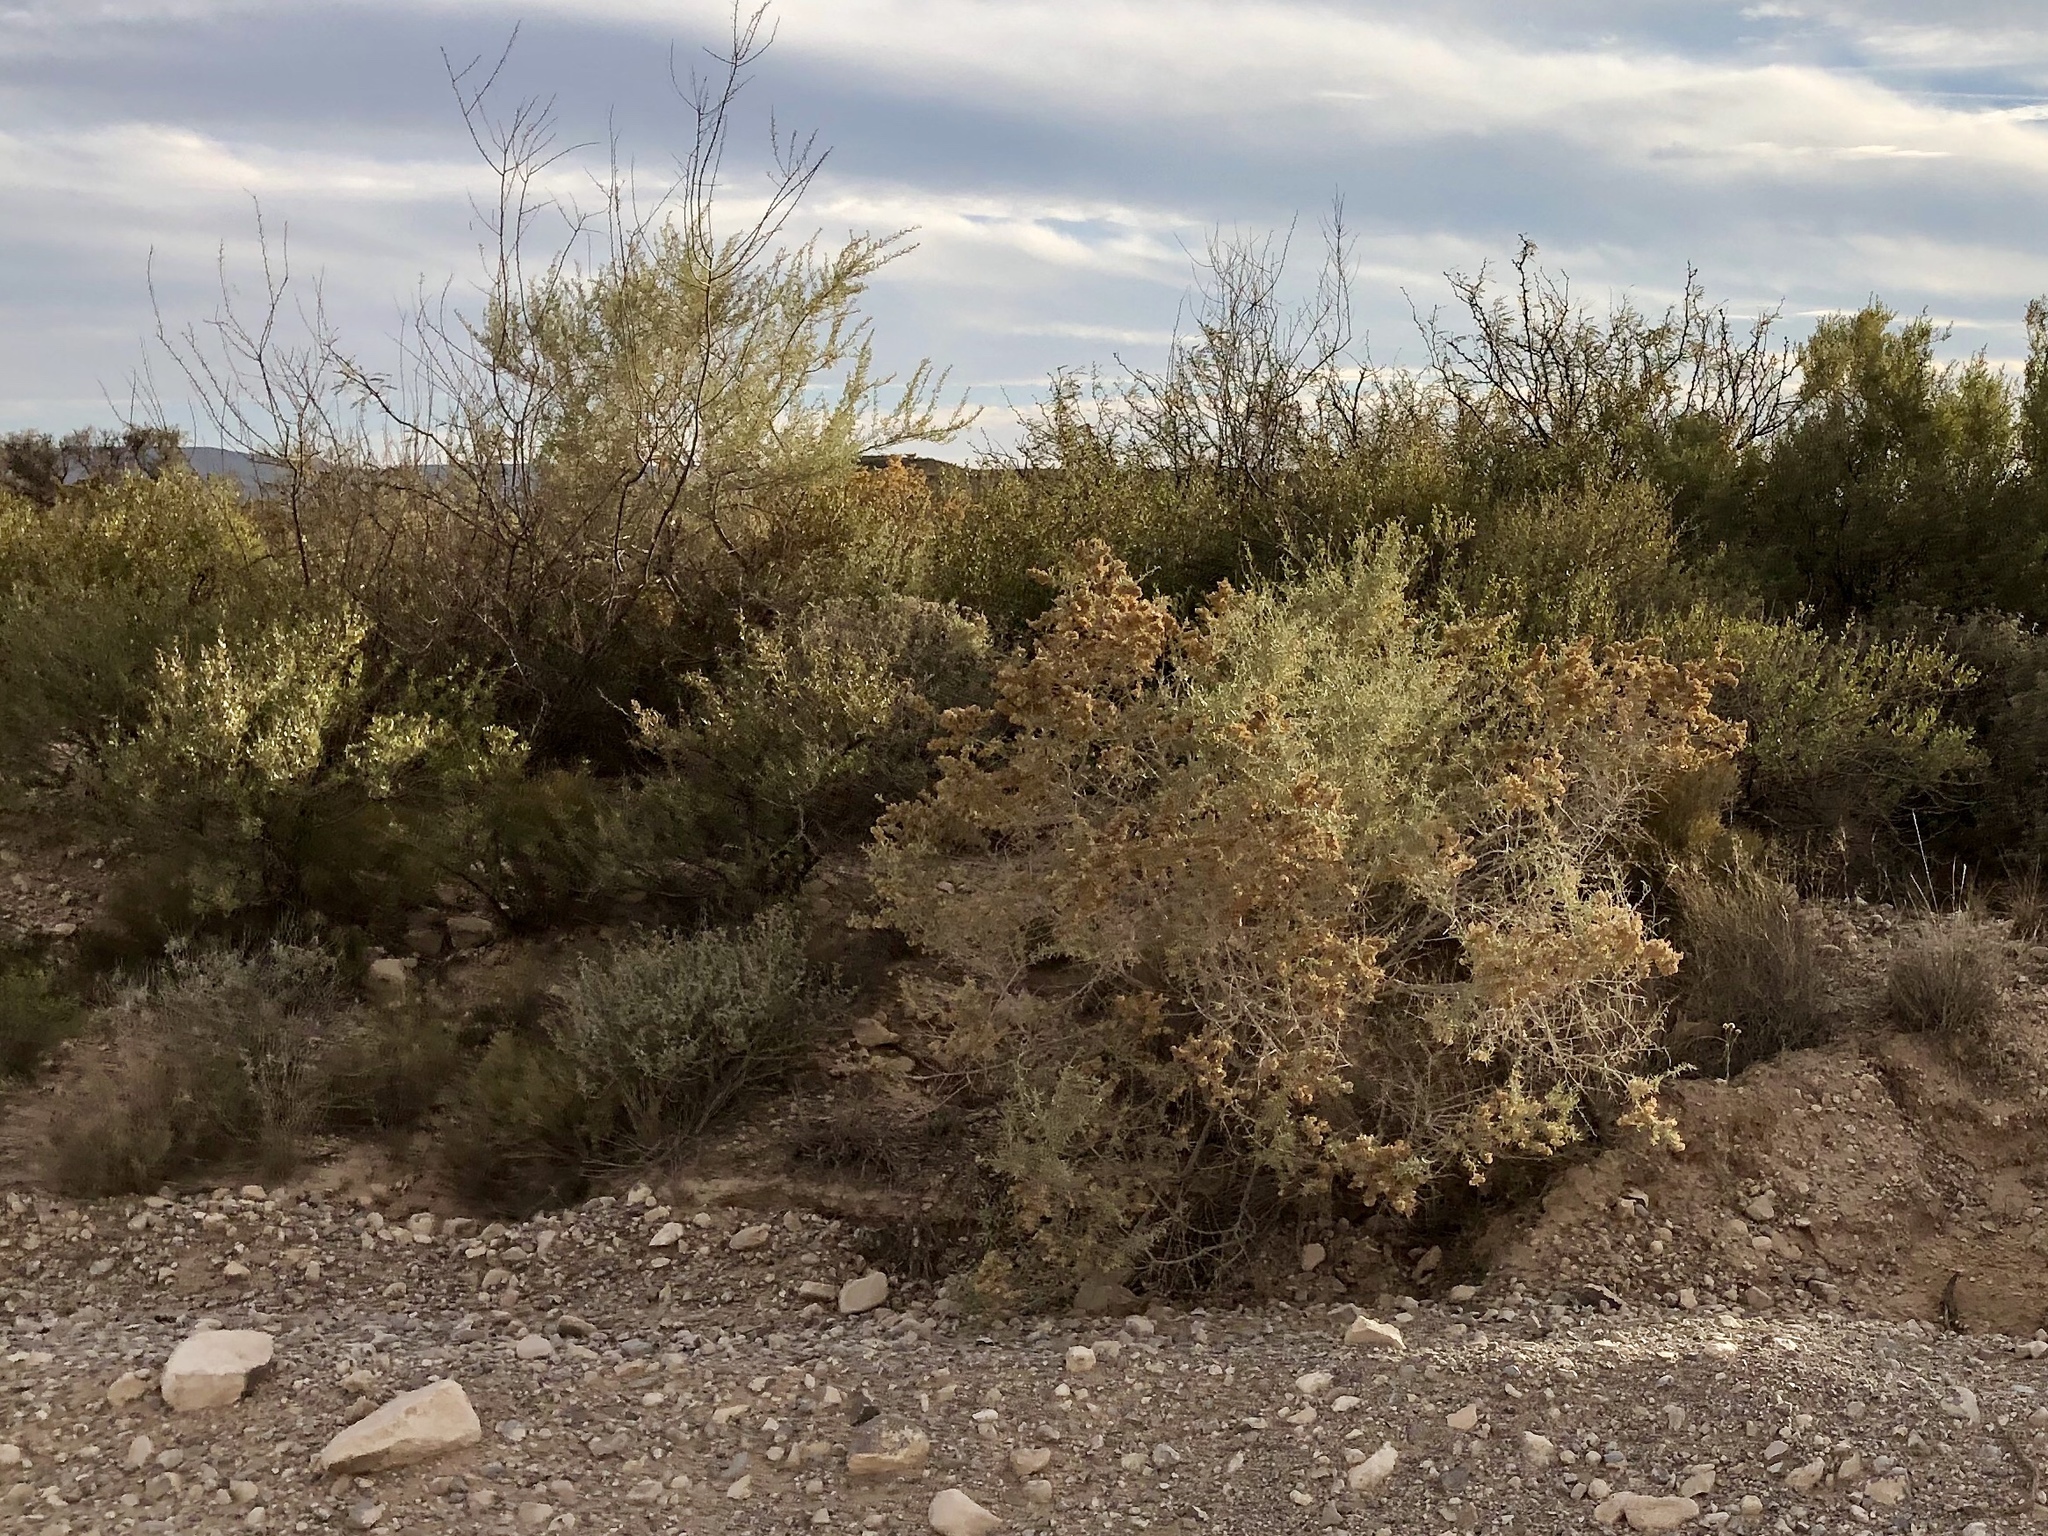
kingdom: Plantae
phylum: Tracheophyta
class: Magnoliopsida
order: Caryophyllales
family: Amaranthaceae
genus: Atriplex
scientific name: Atriplex canescens
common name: Four-wing saltbush
